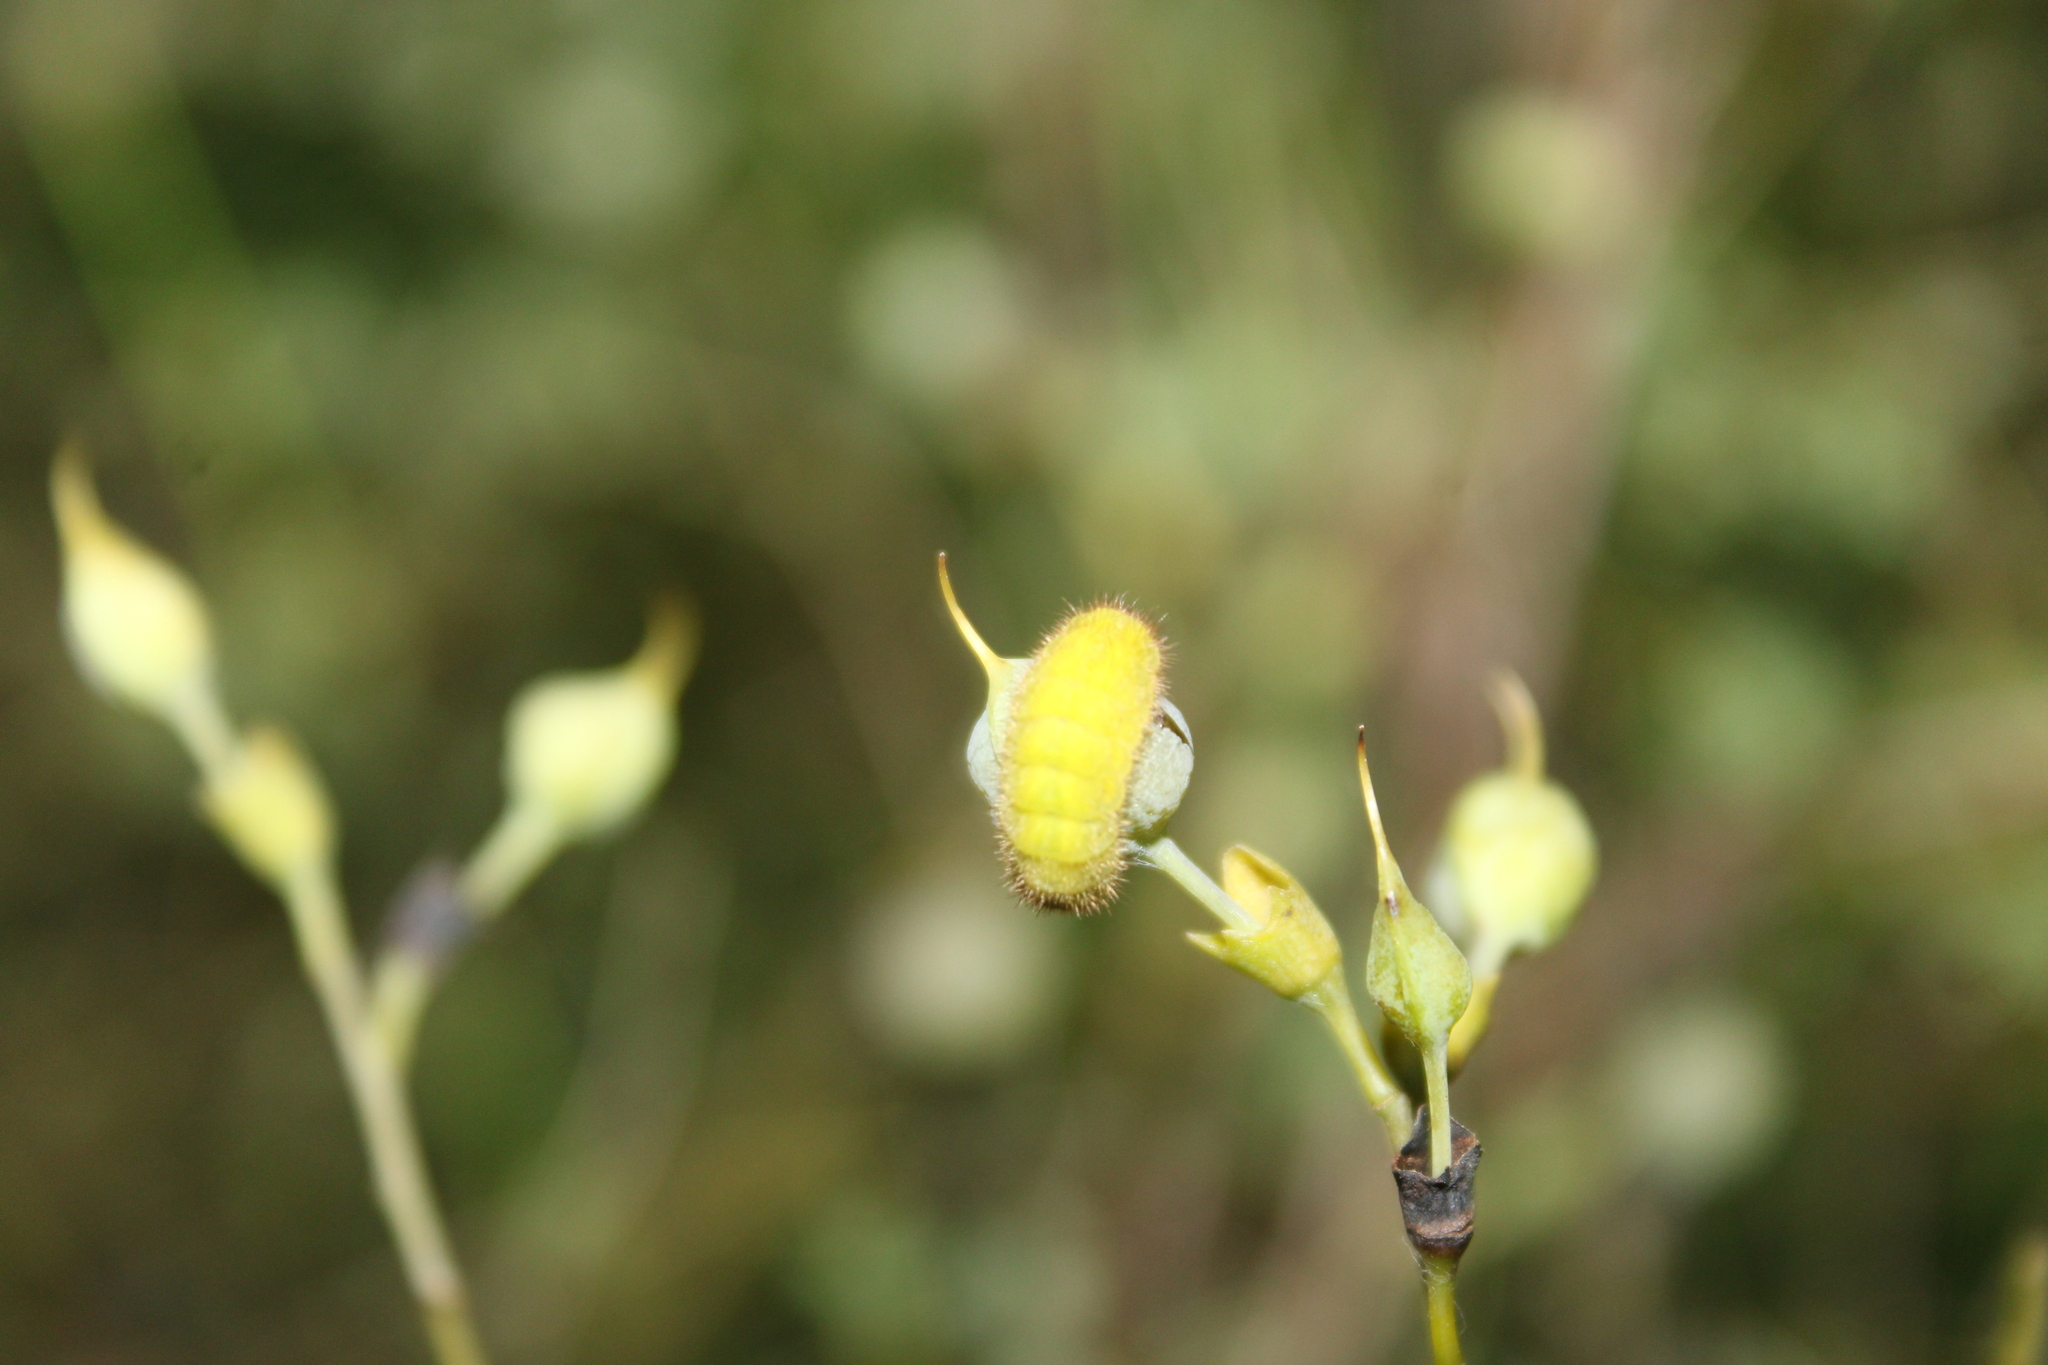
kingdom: Animalia
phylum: Arthropoda
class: Insecta
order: Lepidoptera
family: Lycaenidae
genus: Thecla
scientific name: Thecla irus
